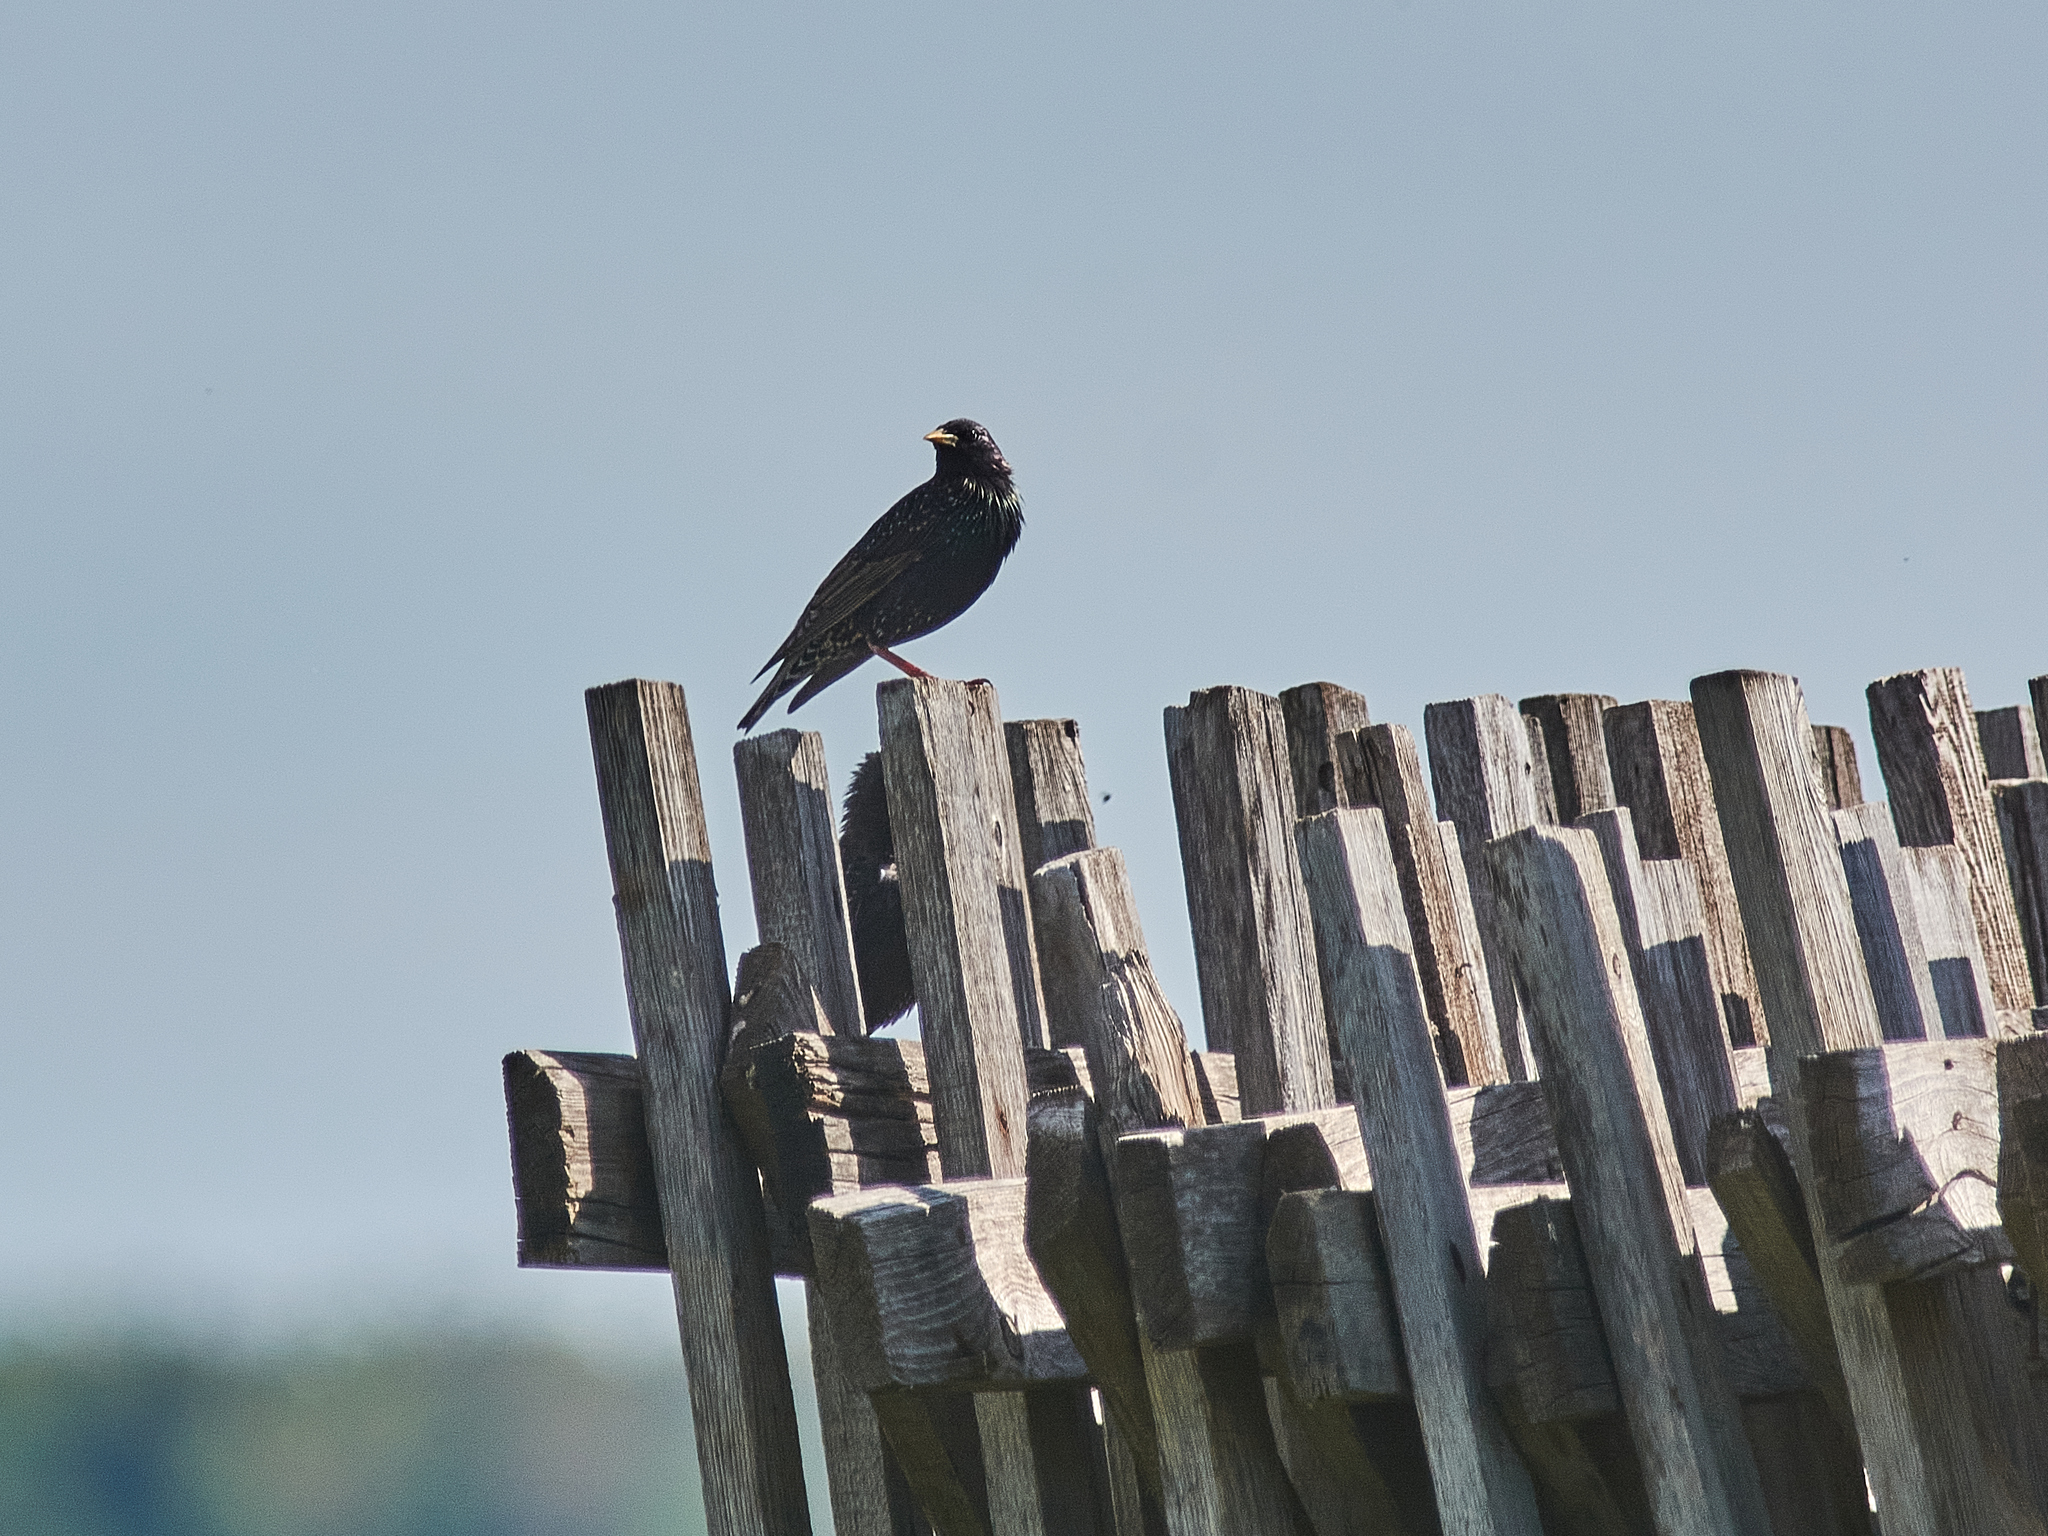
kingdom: Animalia
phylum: Chordata
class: Aves
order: Passeriformes
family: Sturnidae
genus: Sturnus
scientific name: Sturnus vulgaris
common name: Common starling
